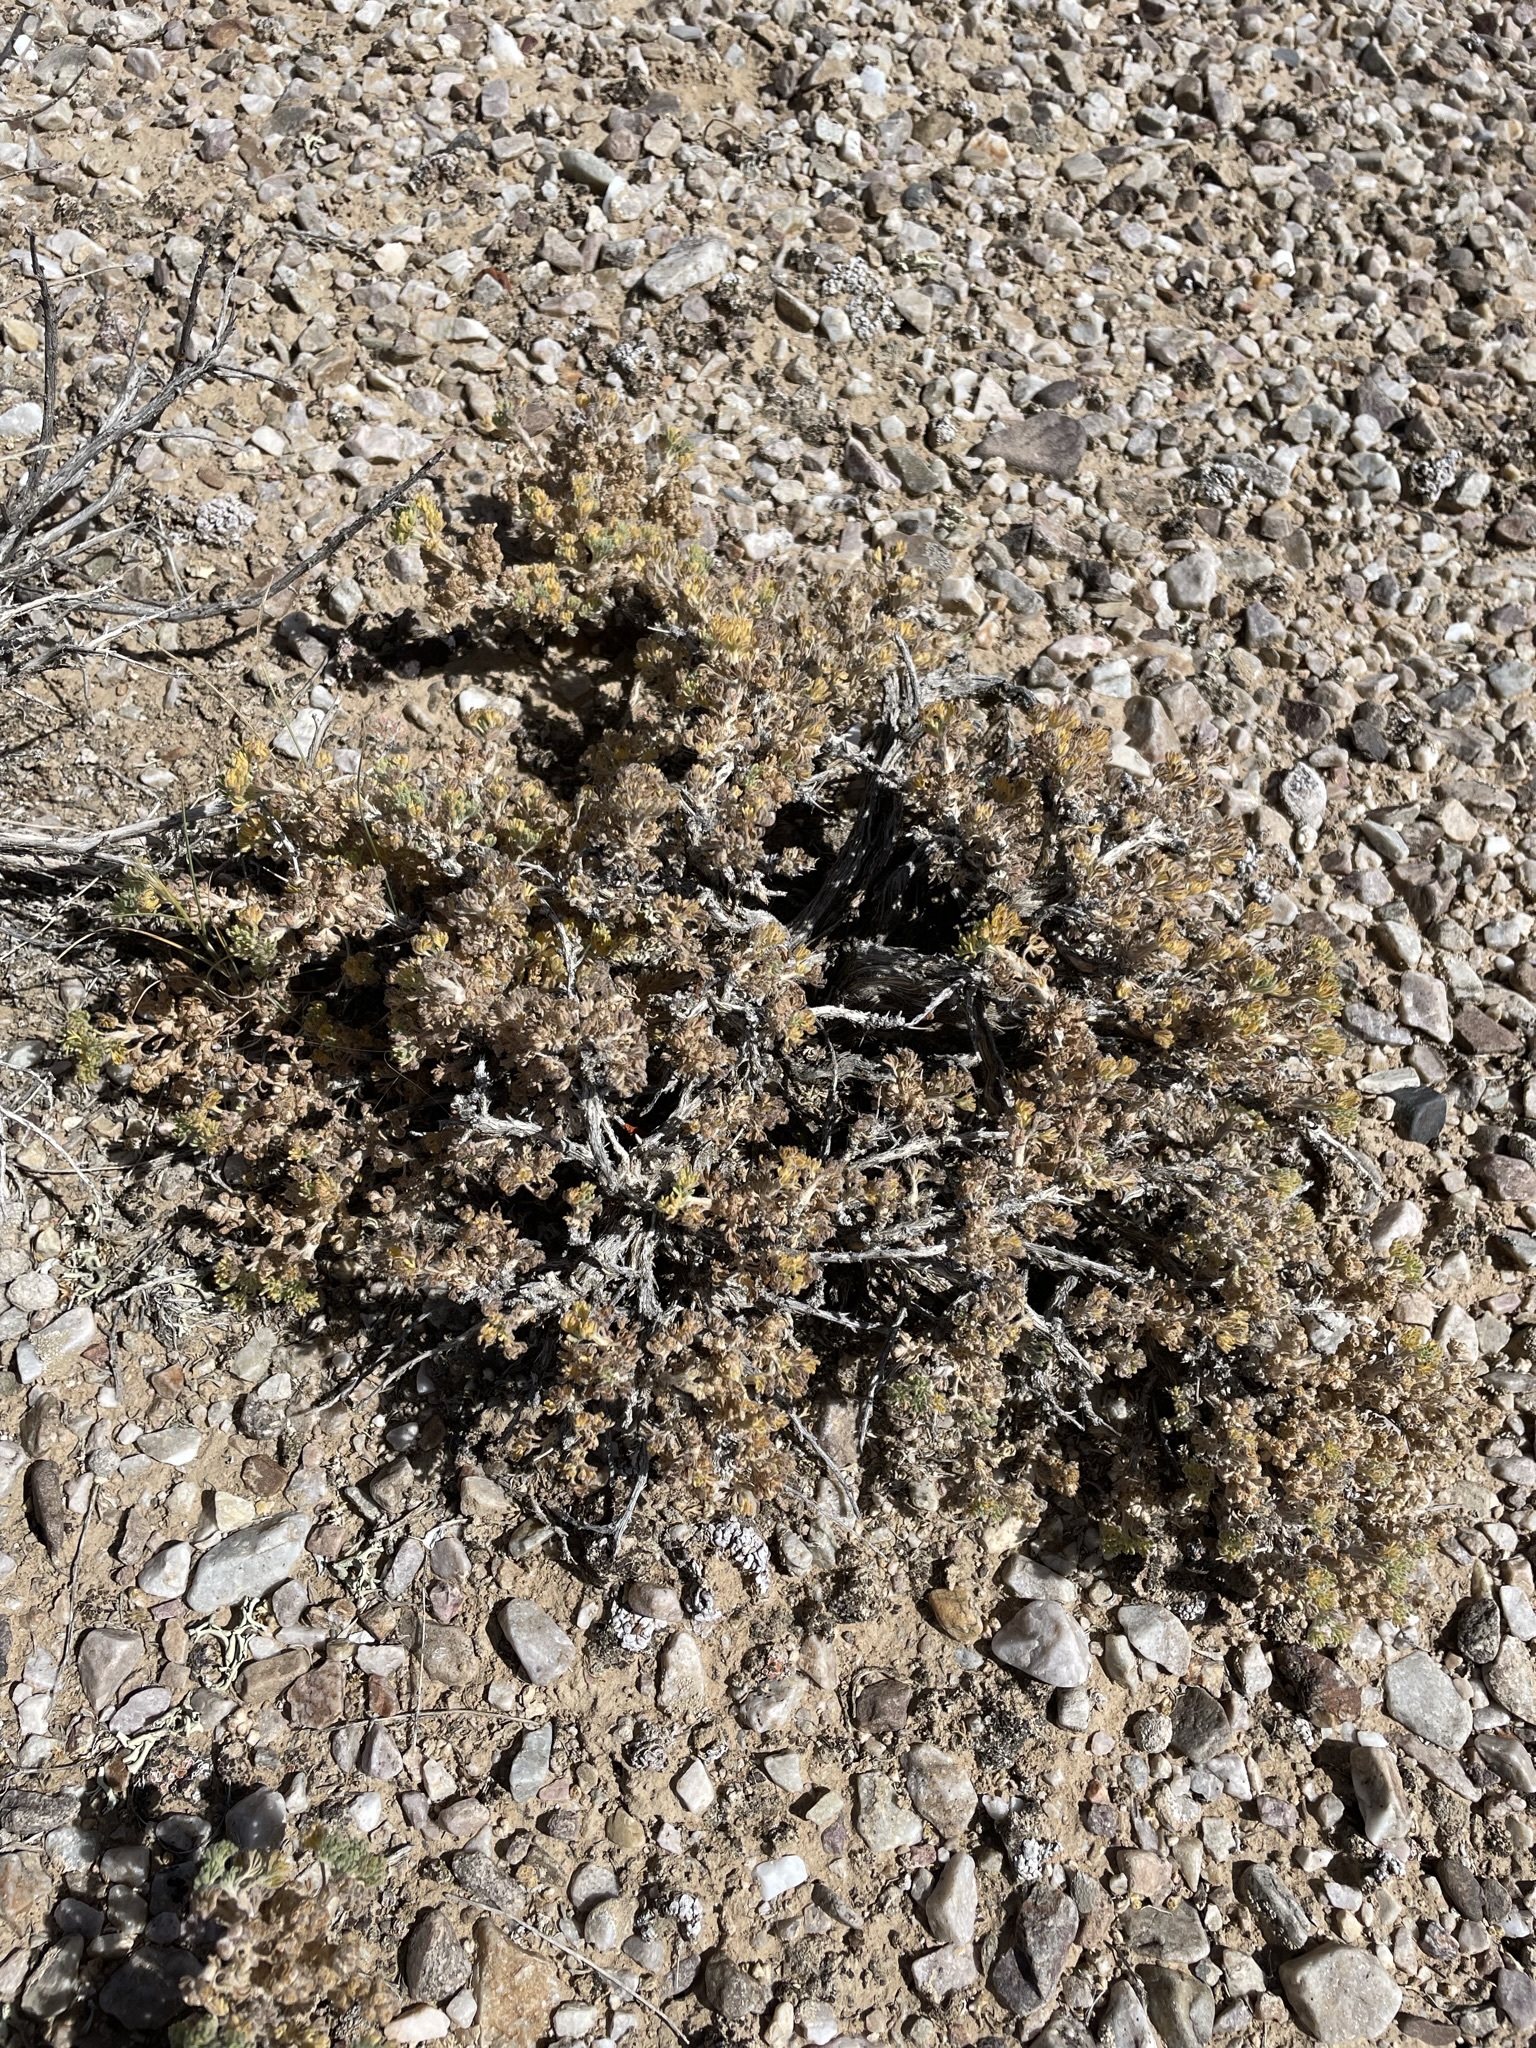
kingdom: Plantae
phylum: Tracheophyta
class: Magnoliopsida
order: Asterales
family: Asteraceae
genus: Artemisia
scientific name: Artemisia spinescens
